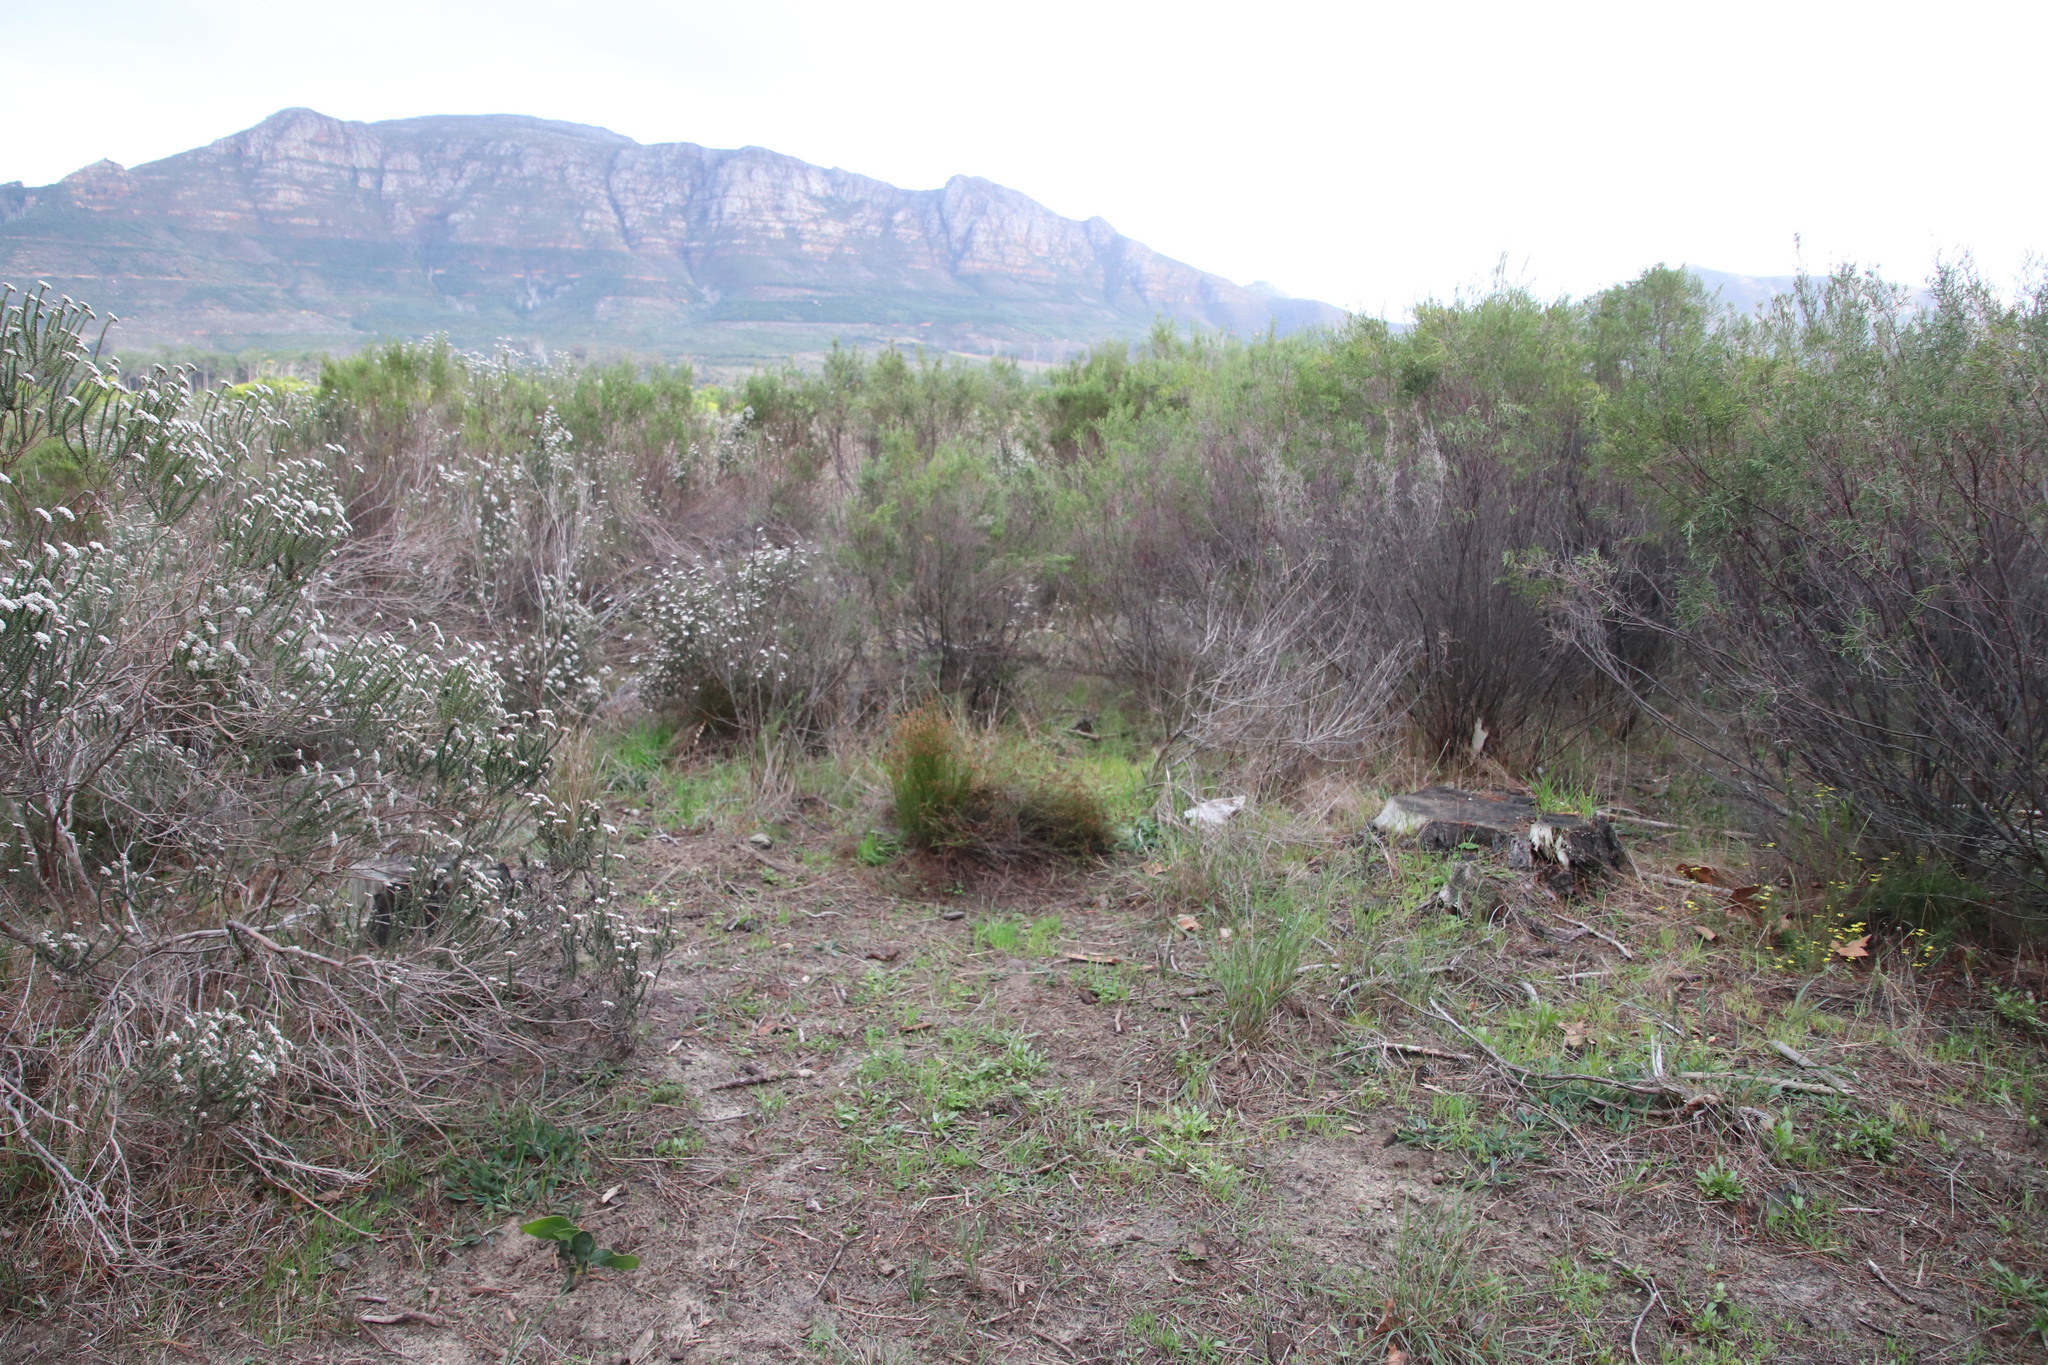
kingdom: Plantae
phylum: Tracheophyta
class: Liliopsida
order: Poales
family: Restionaceae
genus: Mastersiella
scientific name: Mastersiella digitata
